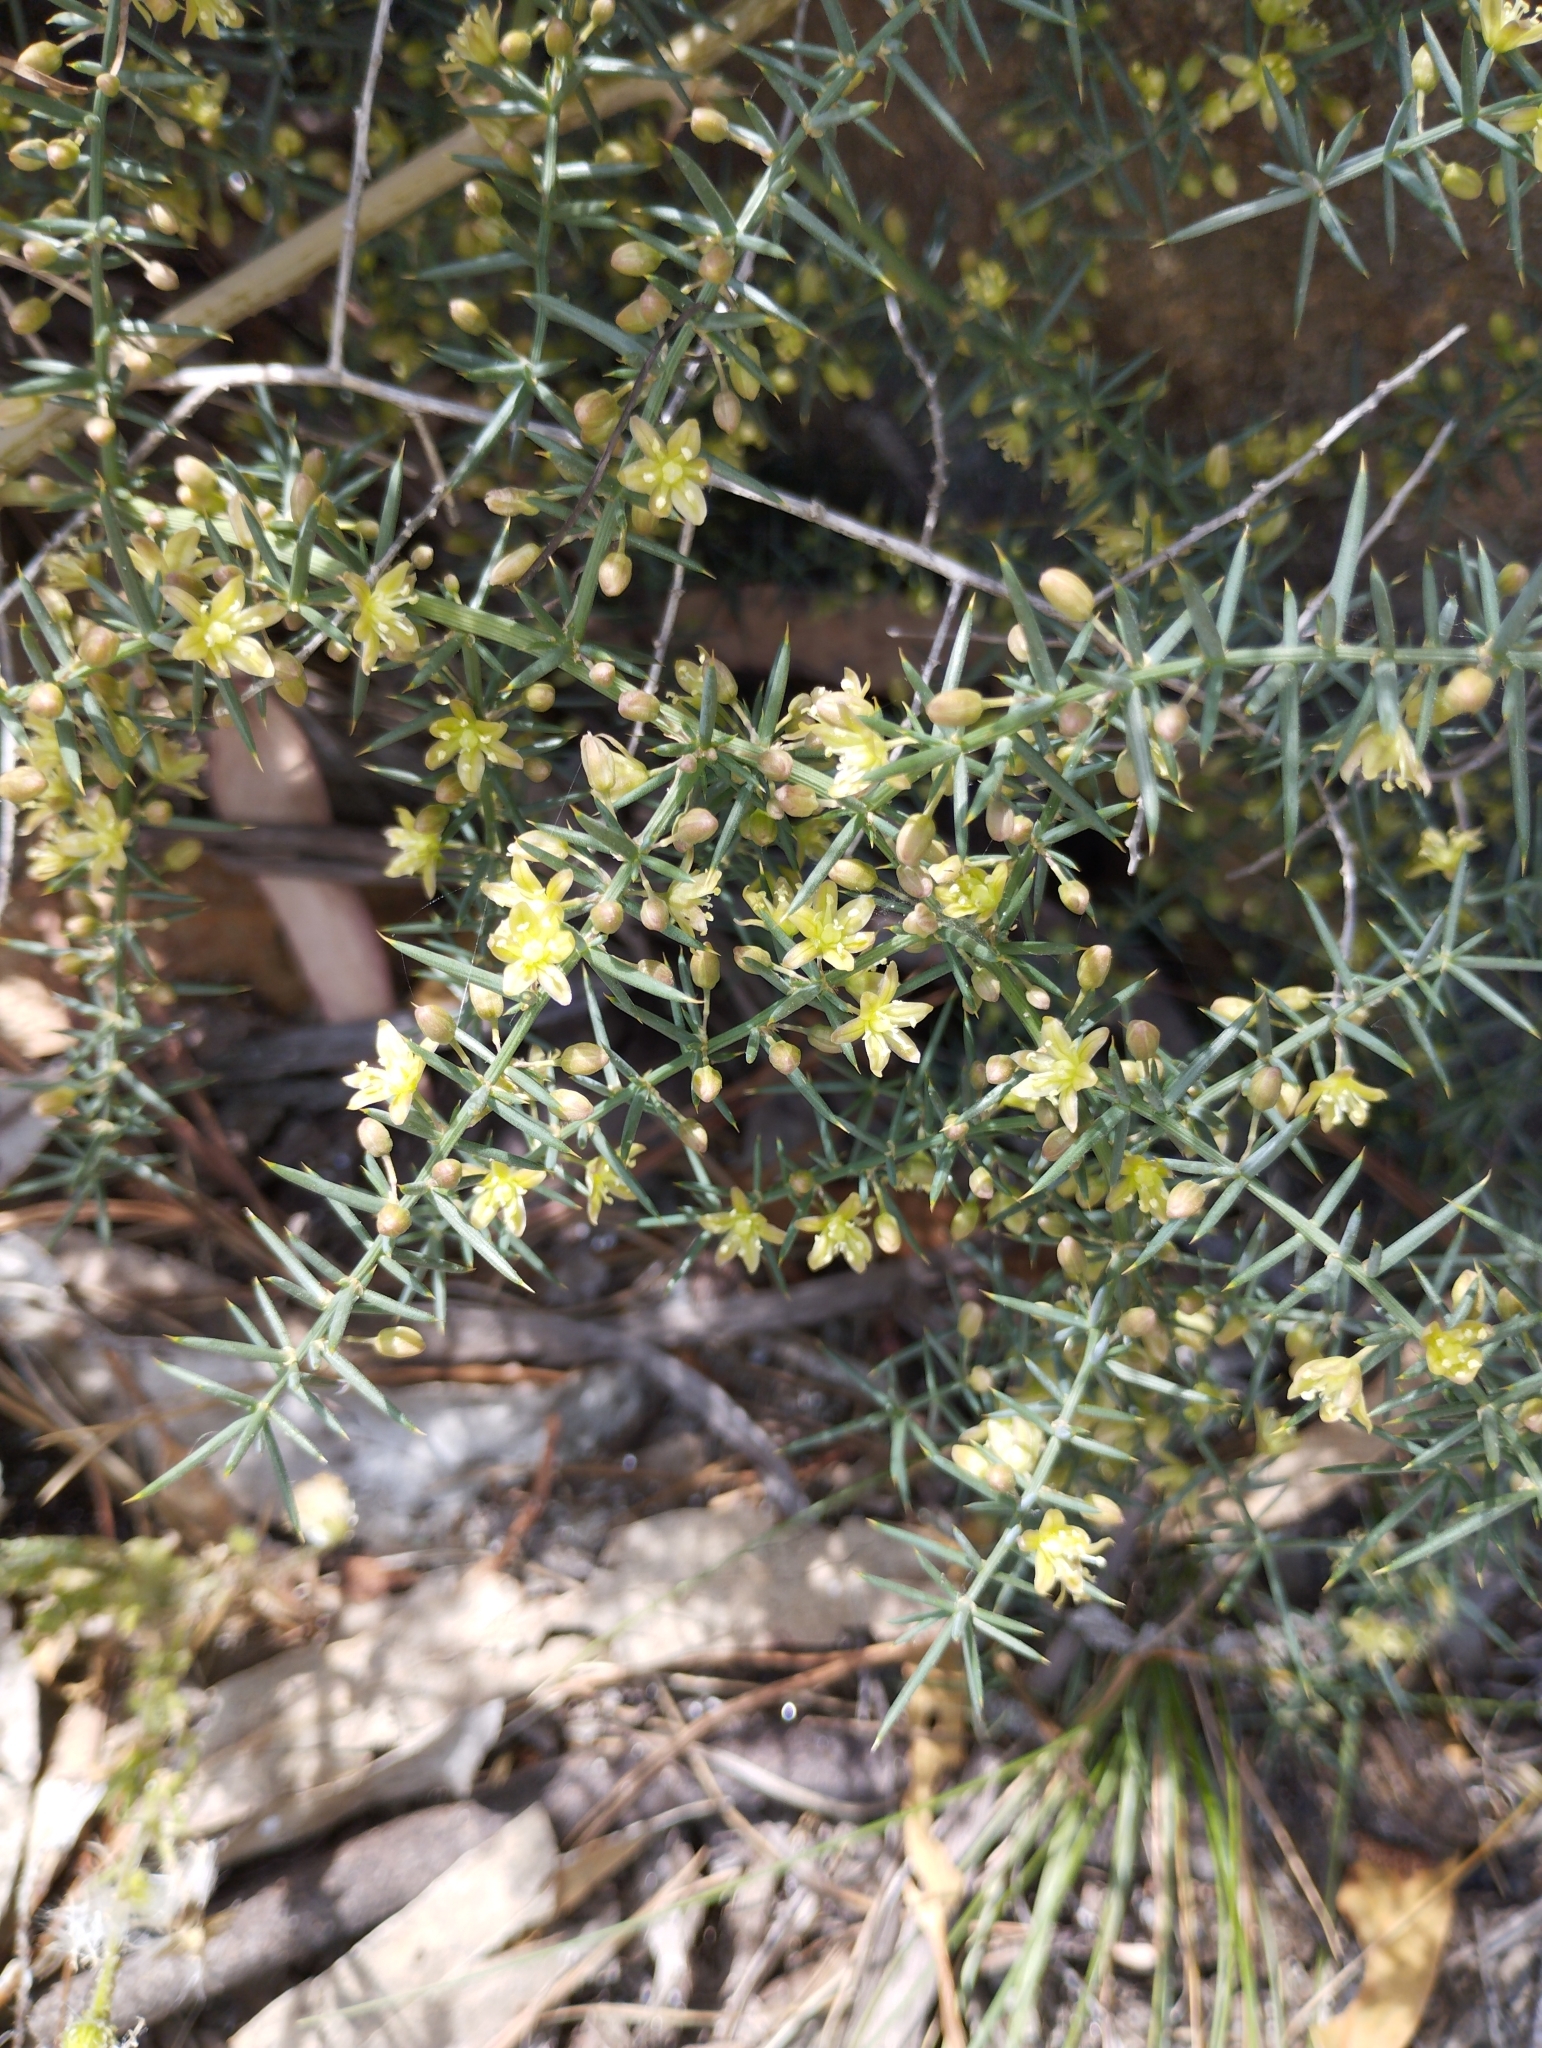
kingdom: Plantae
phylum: Tracheophyta
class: Liliopsida
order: Asparagales
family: Asparagaceae
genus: Asparagus
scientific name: Asparagus aphyllus
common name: Mediterranean asparagus
